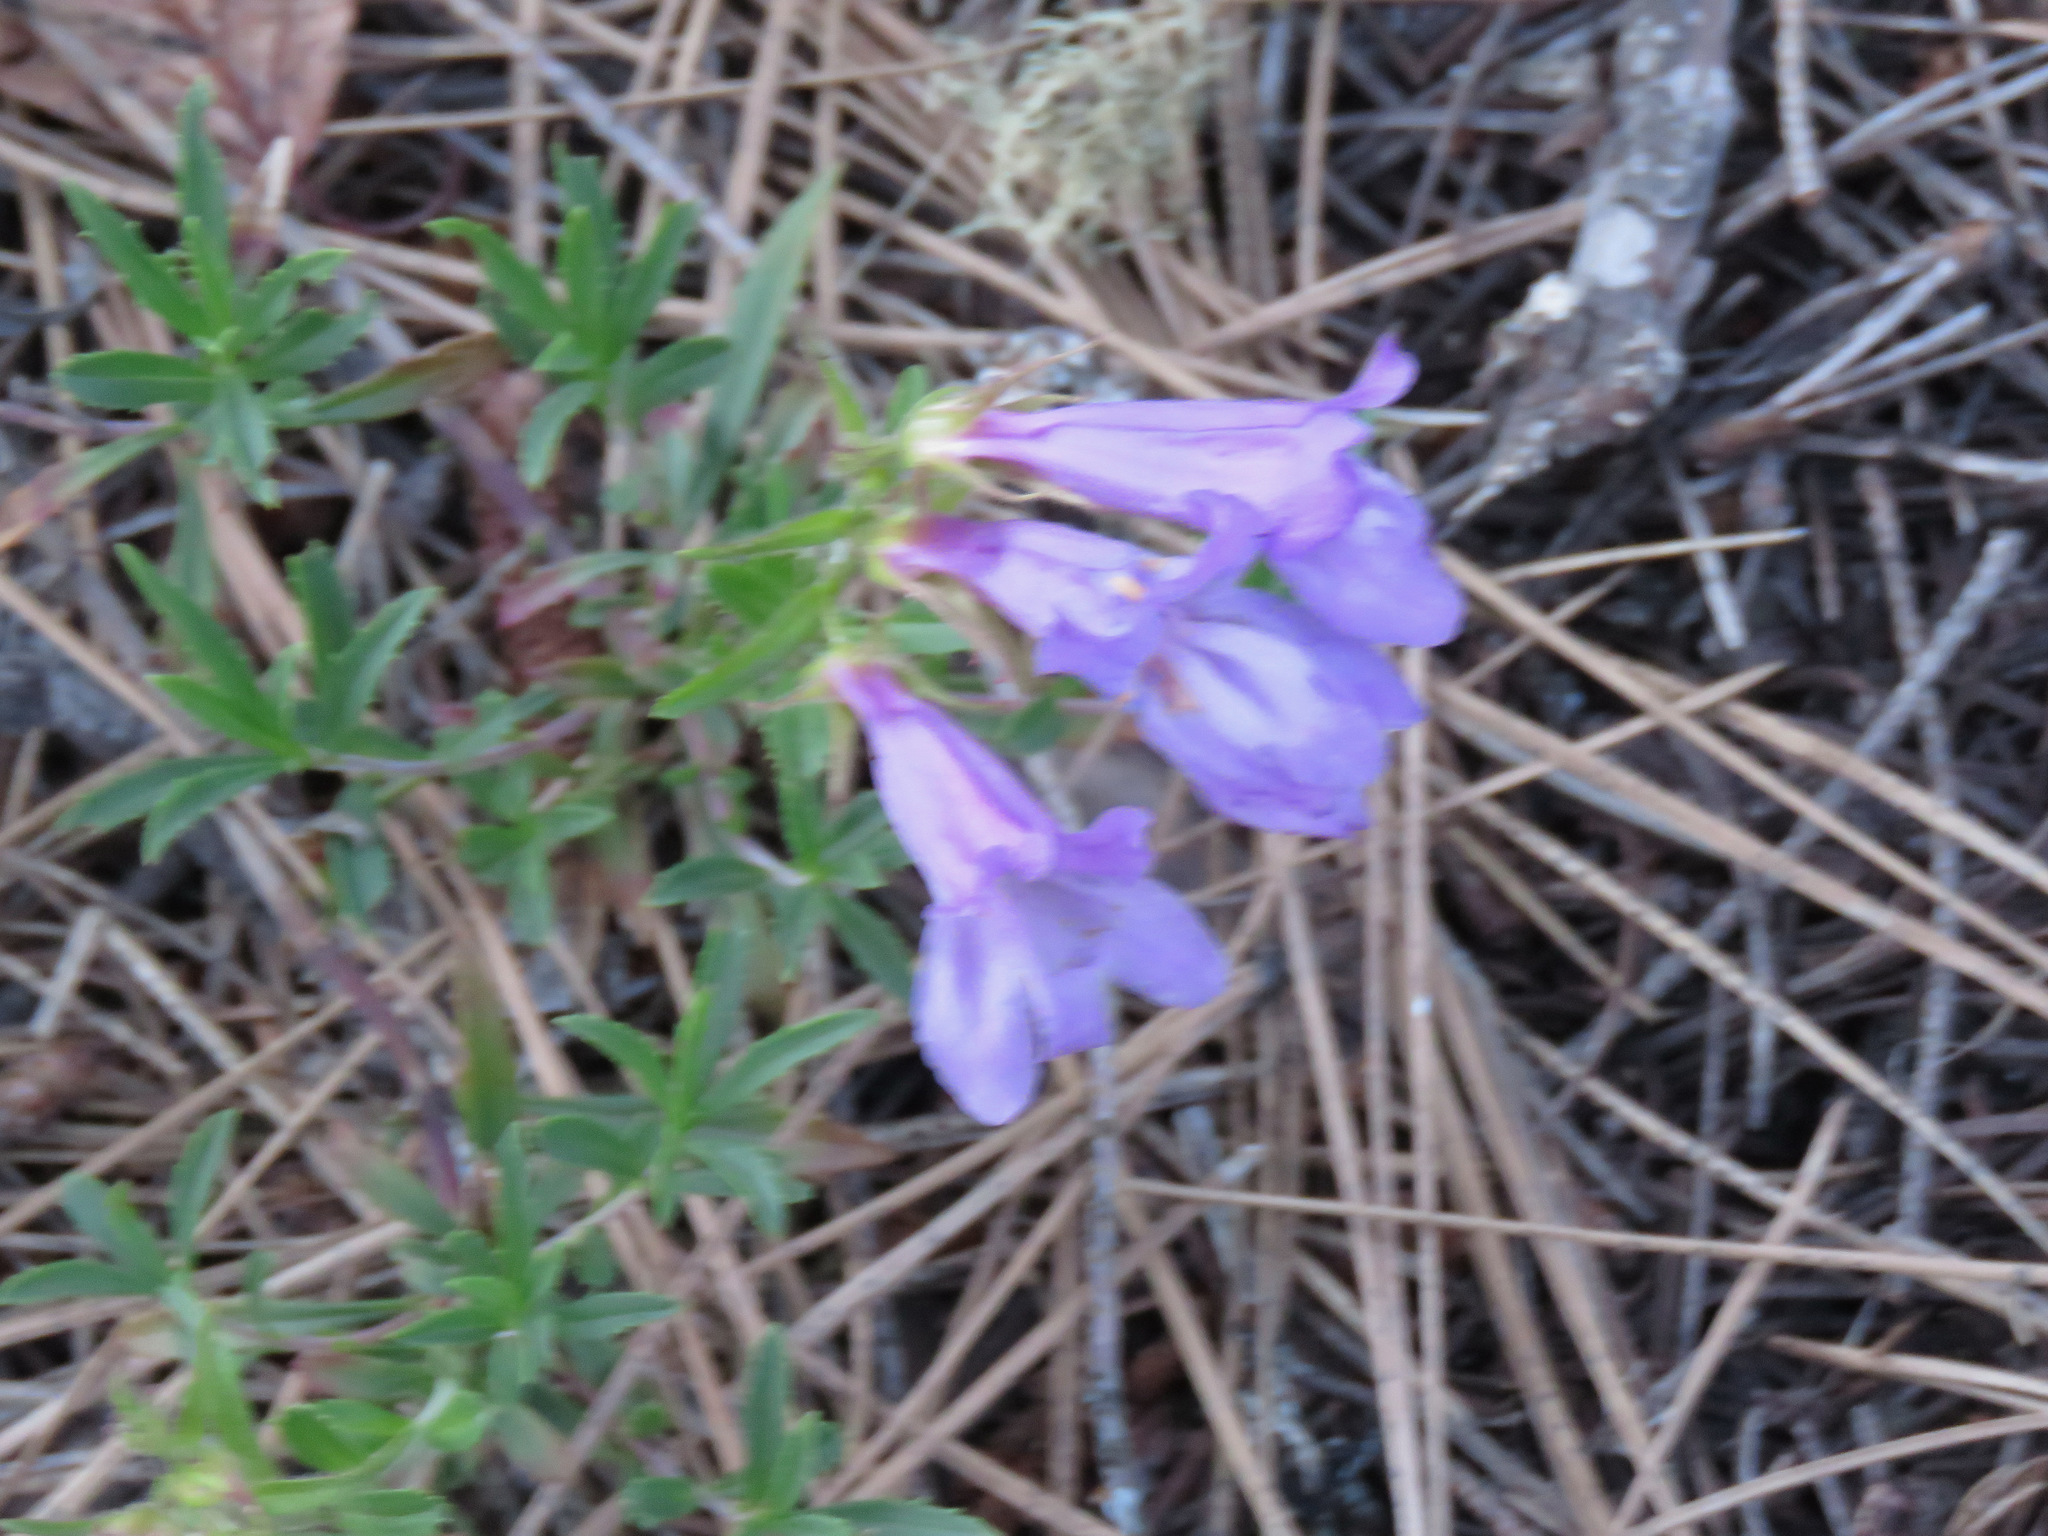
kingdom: Plantae
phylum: Tracheophyta
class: Magnoliopsida
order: Lamiales
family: Plantaginaceae
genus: Penstemon
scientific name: Penstemon fruticosus
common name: Bush penstemon
